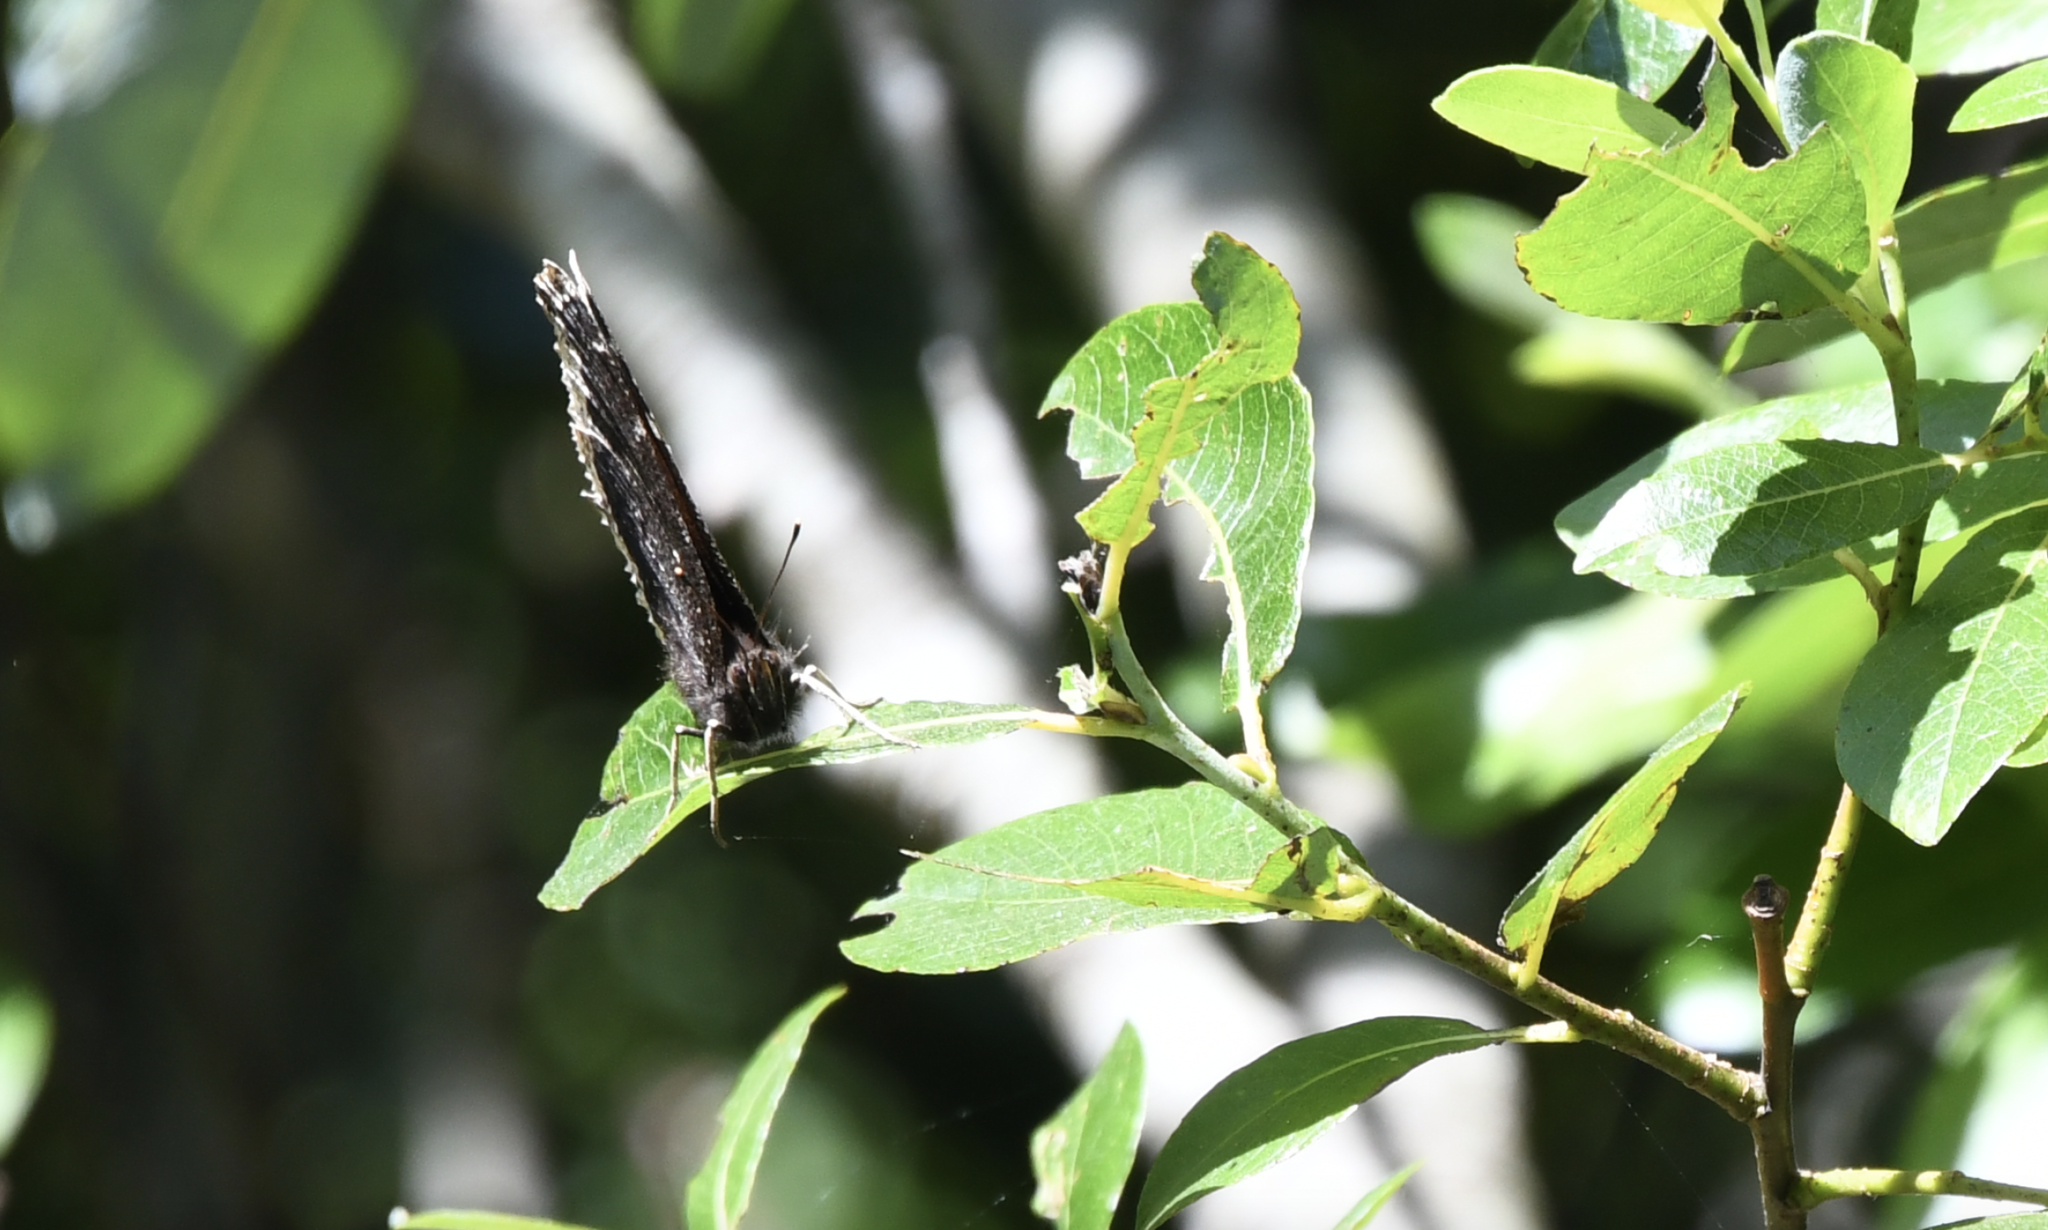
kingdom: Animalia
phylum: Arthropoda
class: Insecta
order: Lepidoptera
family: Nymphalidae
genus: Nymphalis
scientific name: Nymphalis antiopa
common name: Camberwell beauty
